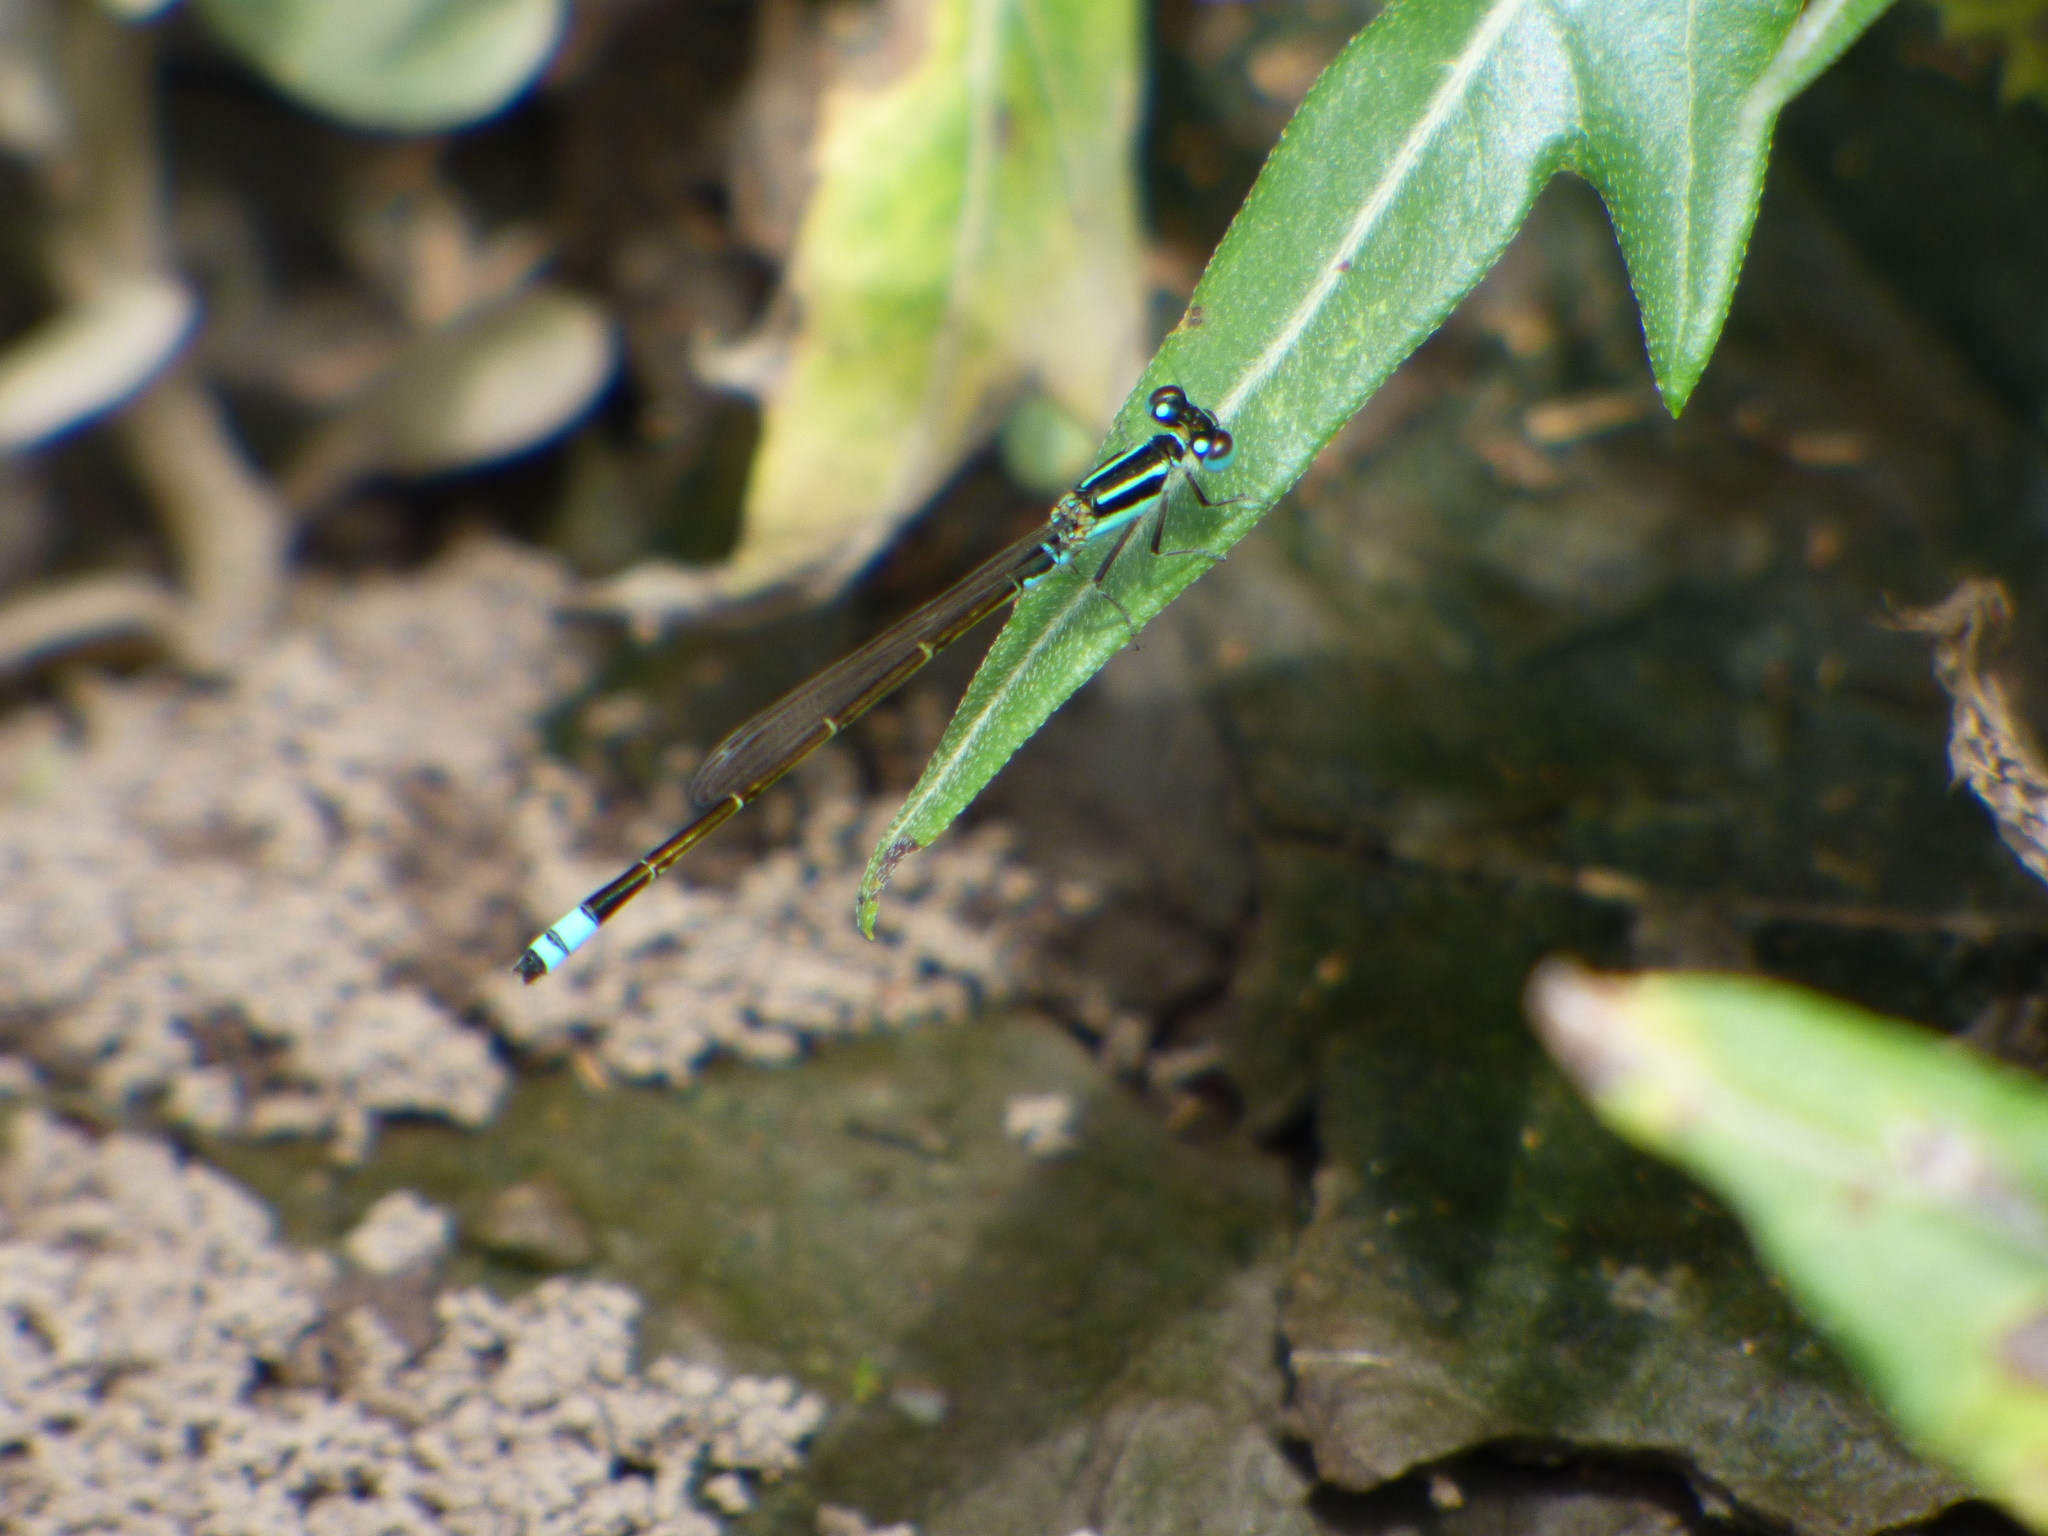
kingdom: Animalia
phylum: Arthropoda
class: Insecta
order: Odonata
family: Coenagrionidae
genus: Ischnura
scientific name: Ischnura fluviatilis
